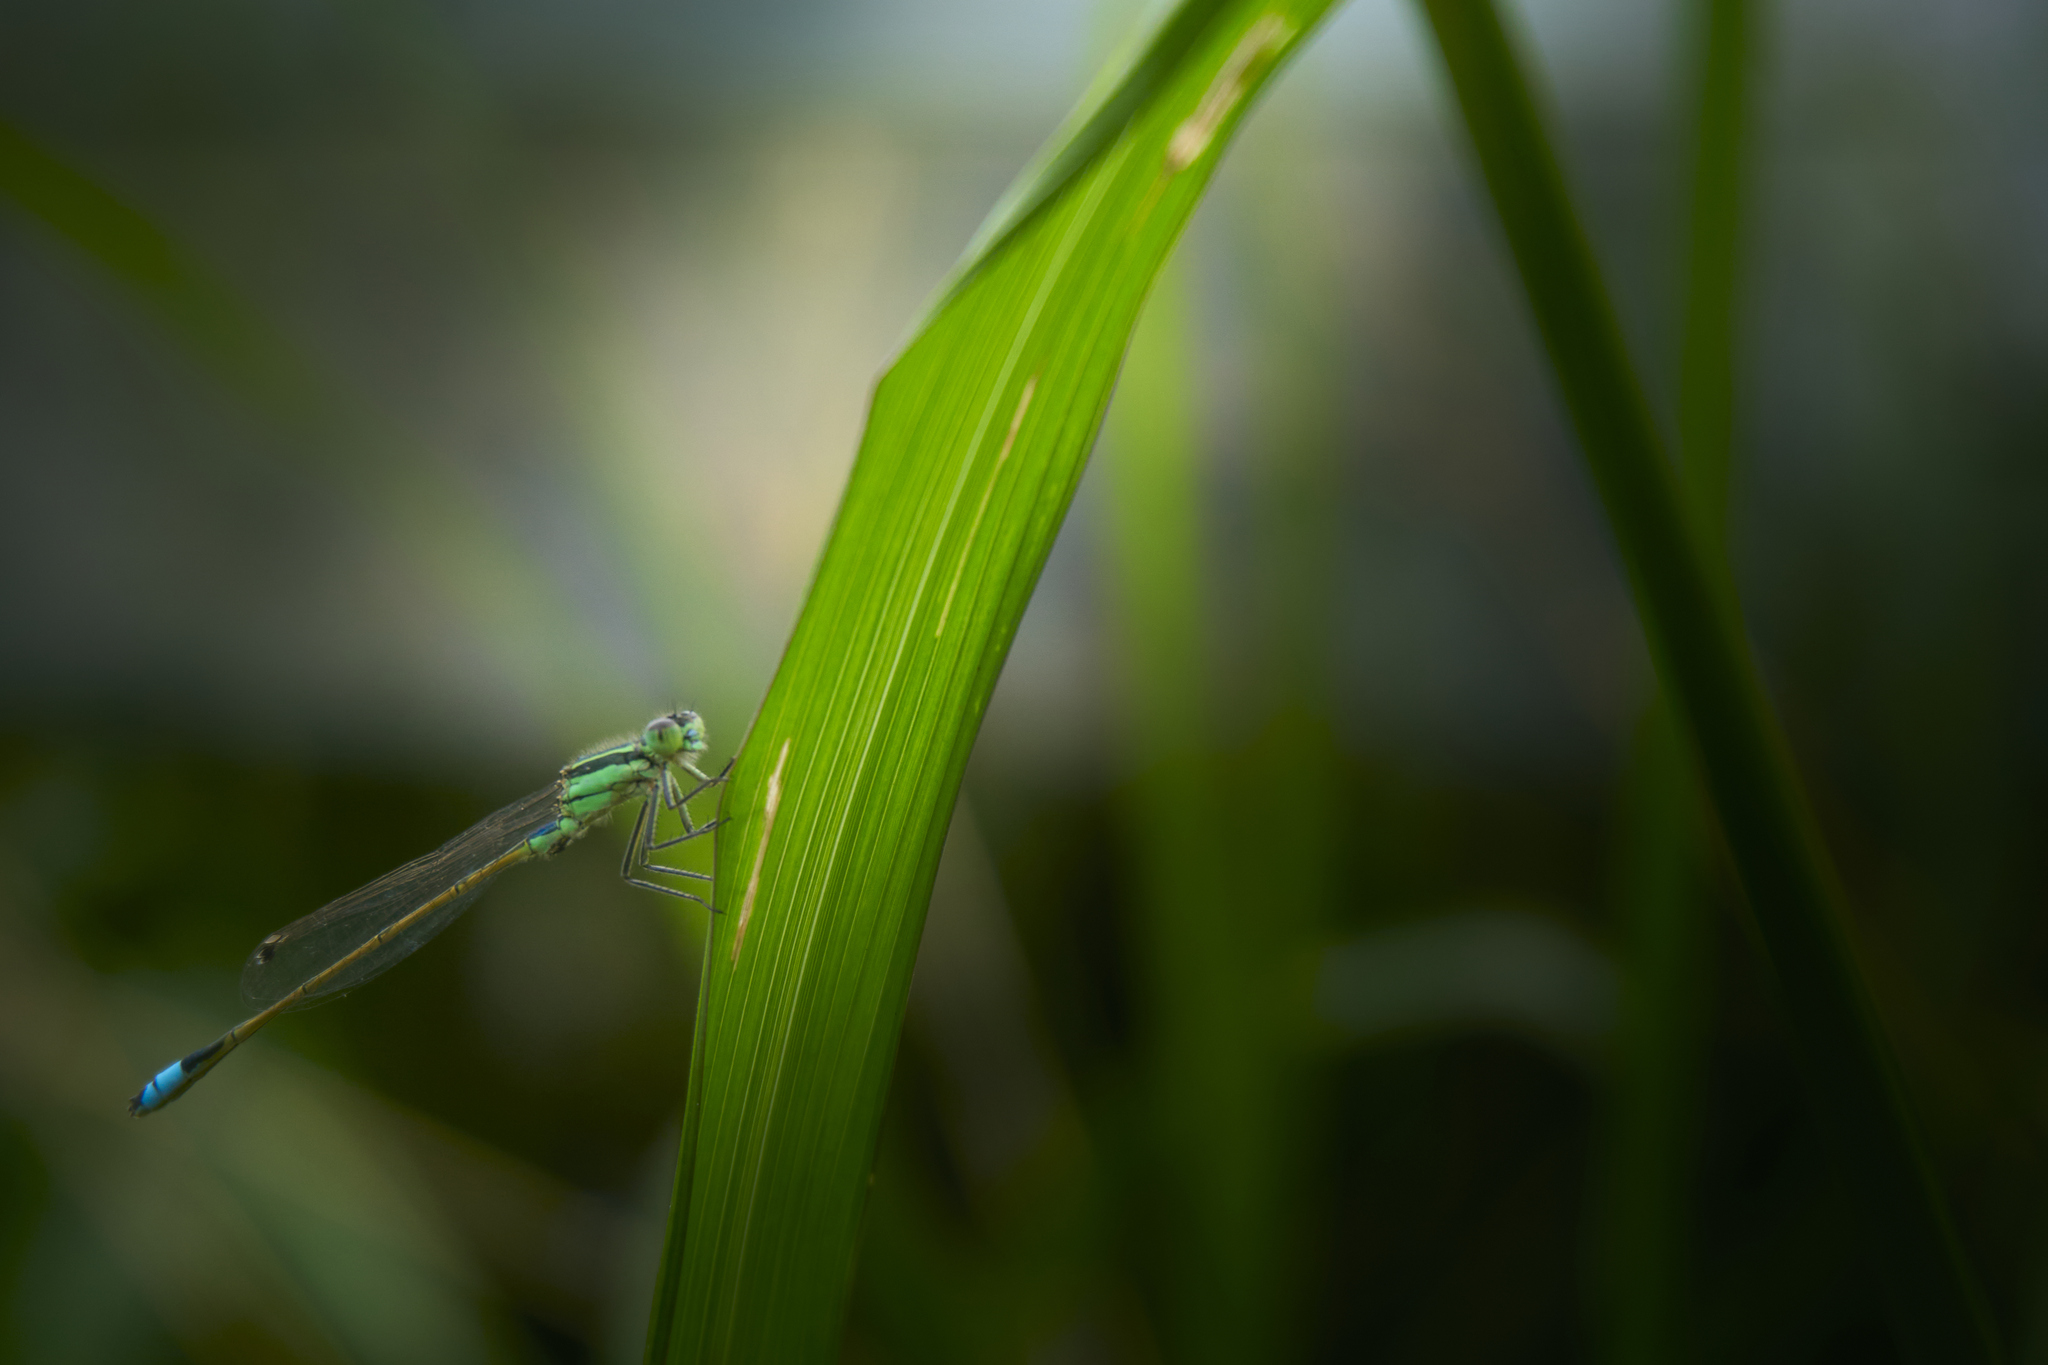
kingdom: Animalia
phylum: Arthropoda
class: Insecta
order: Odonata
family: Coenagrionidae
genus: Ischnura
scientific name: Ischnura ramburii
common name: Rambur's forktail
